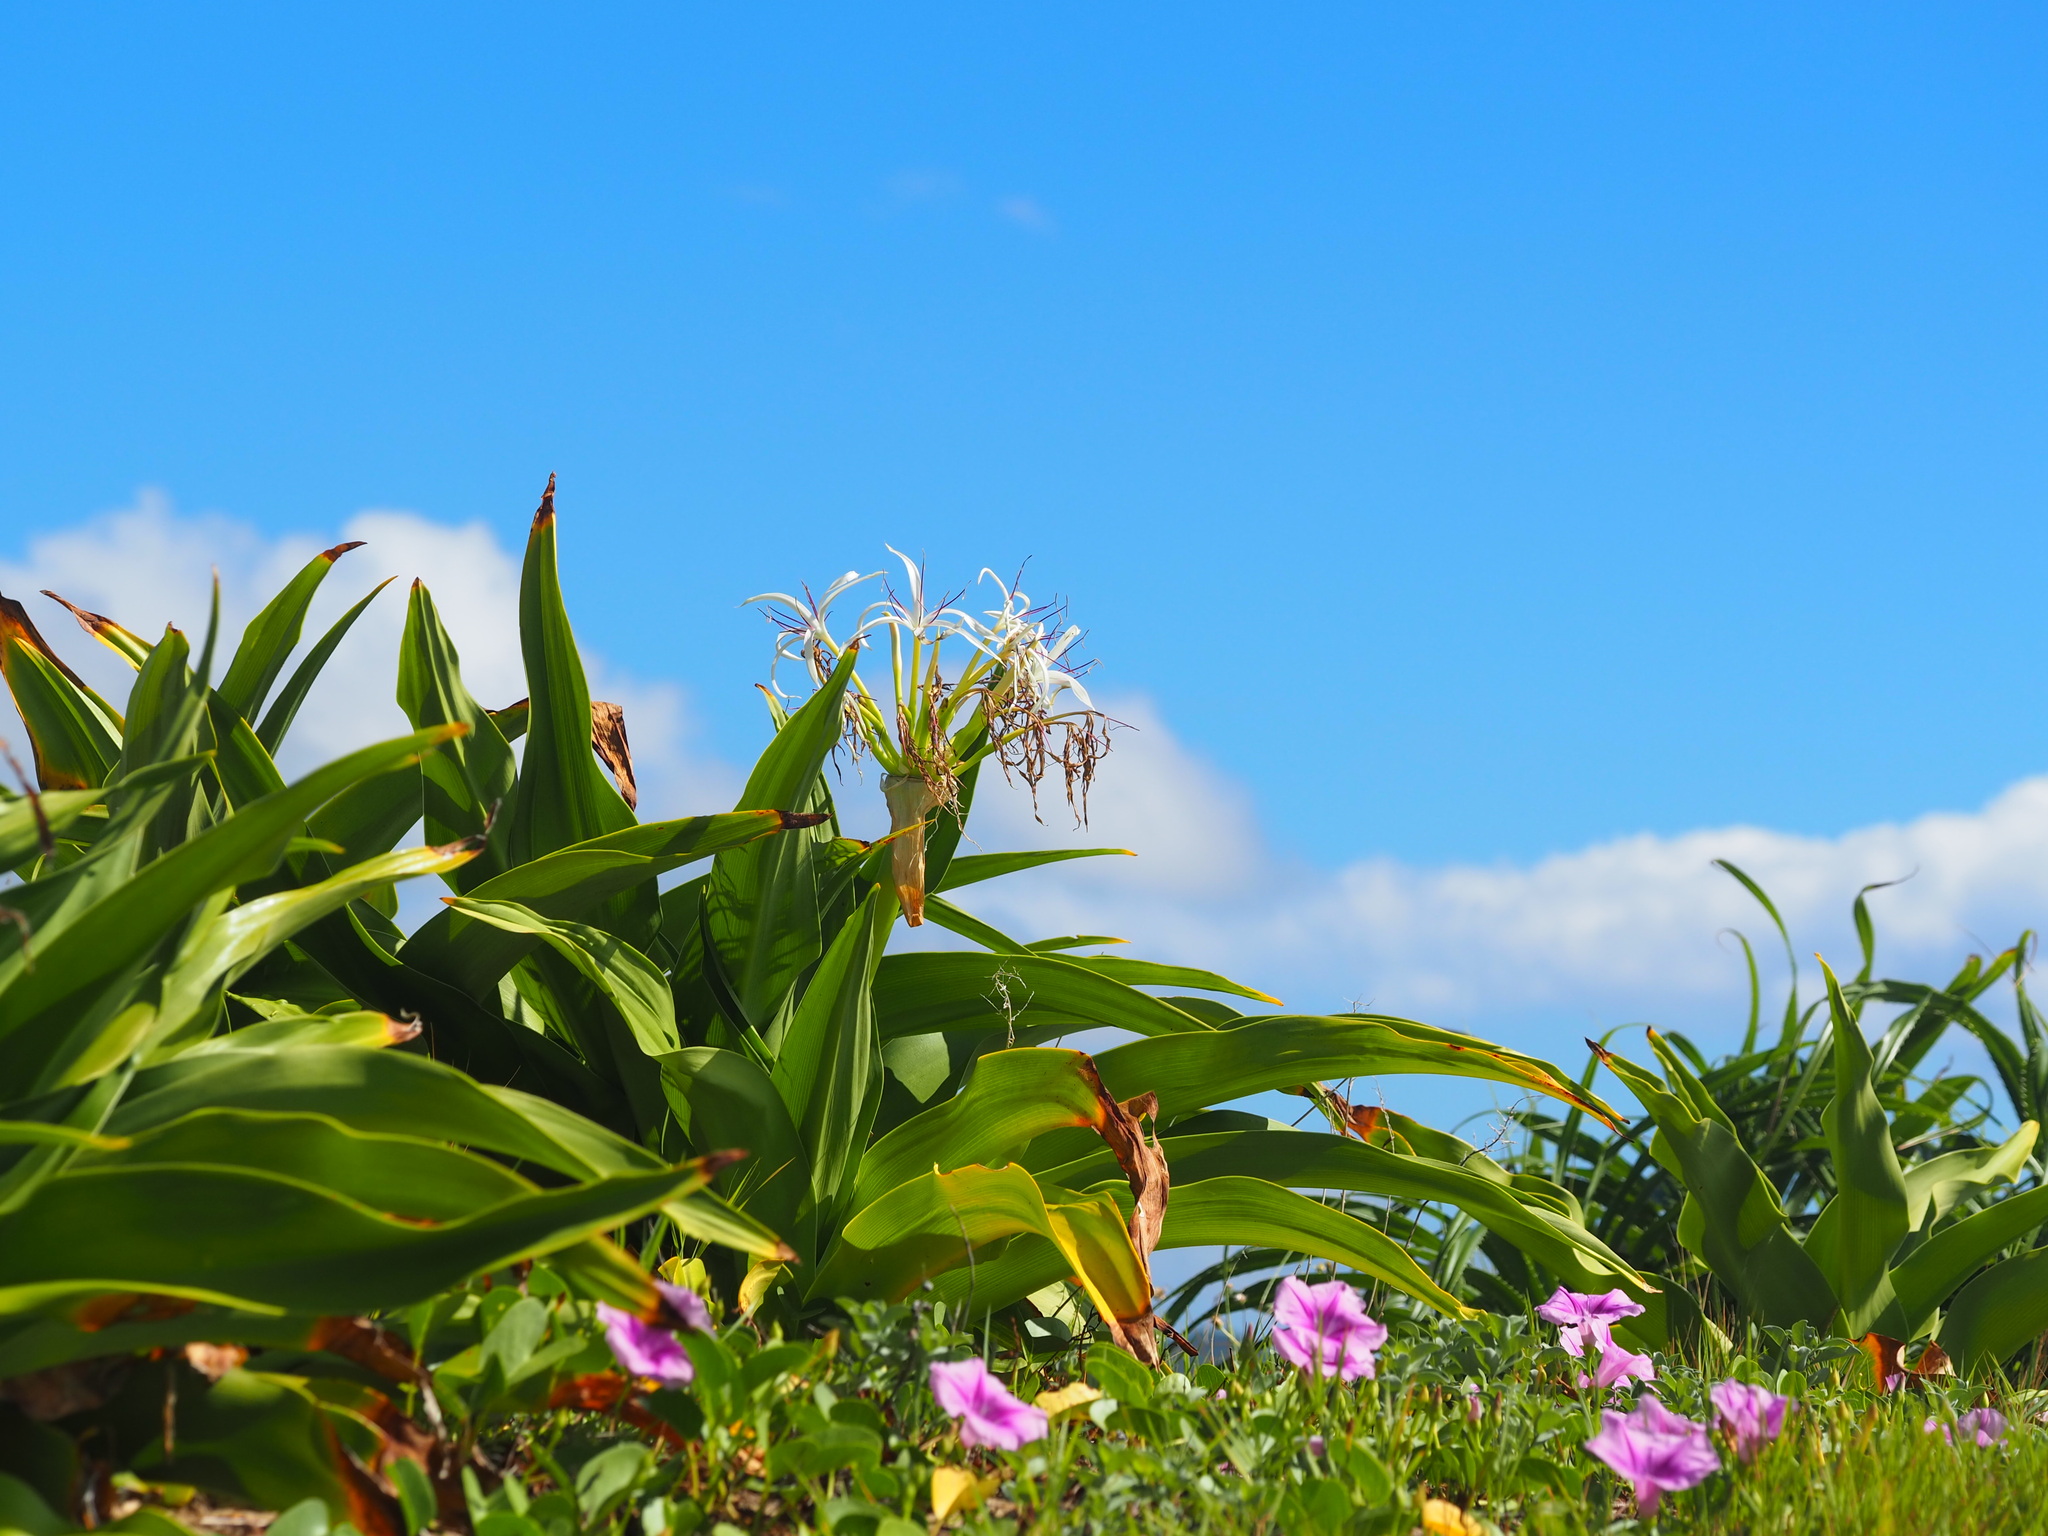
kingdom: Plantae
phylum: Tracheophyta
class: Liliopsida
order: Asparagales
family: Amaryllidaceae
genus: Crinum
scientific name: Crinum asiaticum
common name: Poisonbulb
